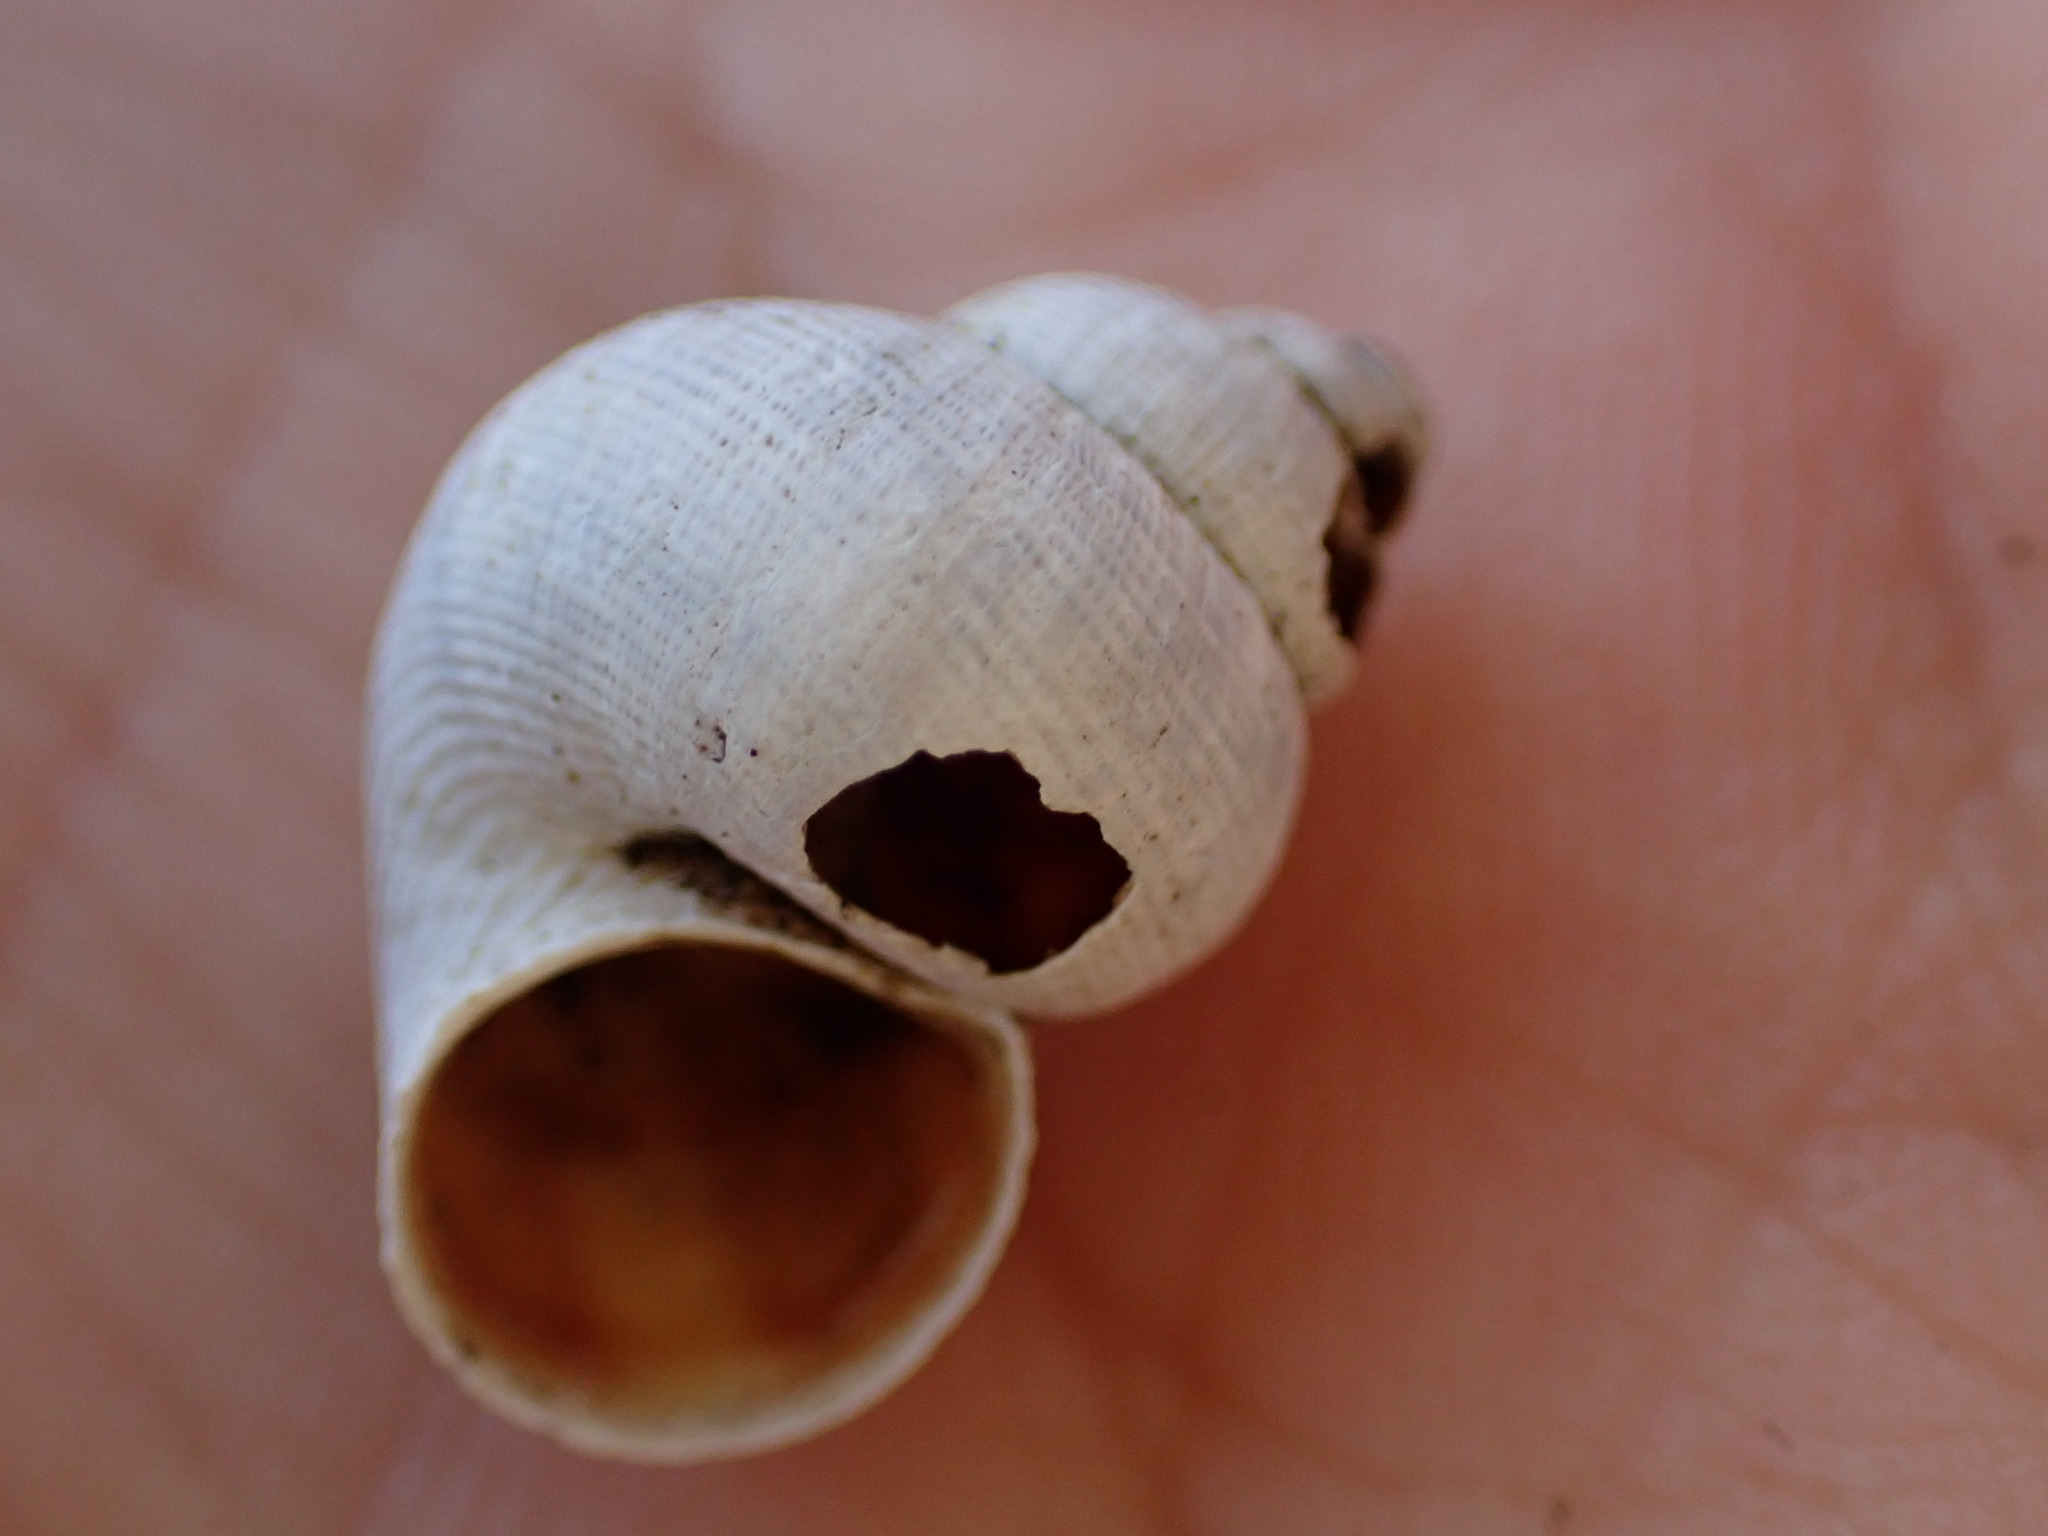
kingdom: Animalia
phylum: Mollusca
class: Gastropoda
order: Littorinimorpha
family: Pomatiidae
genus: Pomatias
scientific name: Pomatias elegans
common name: Red-mouthed snail
